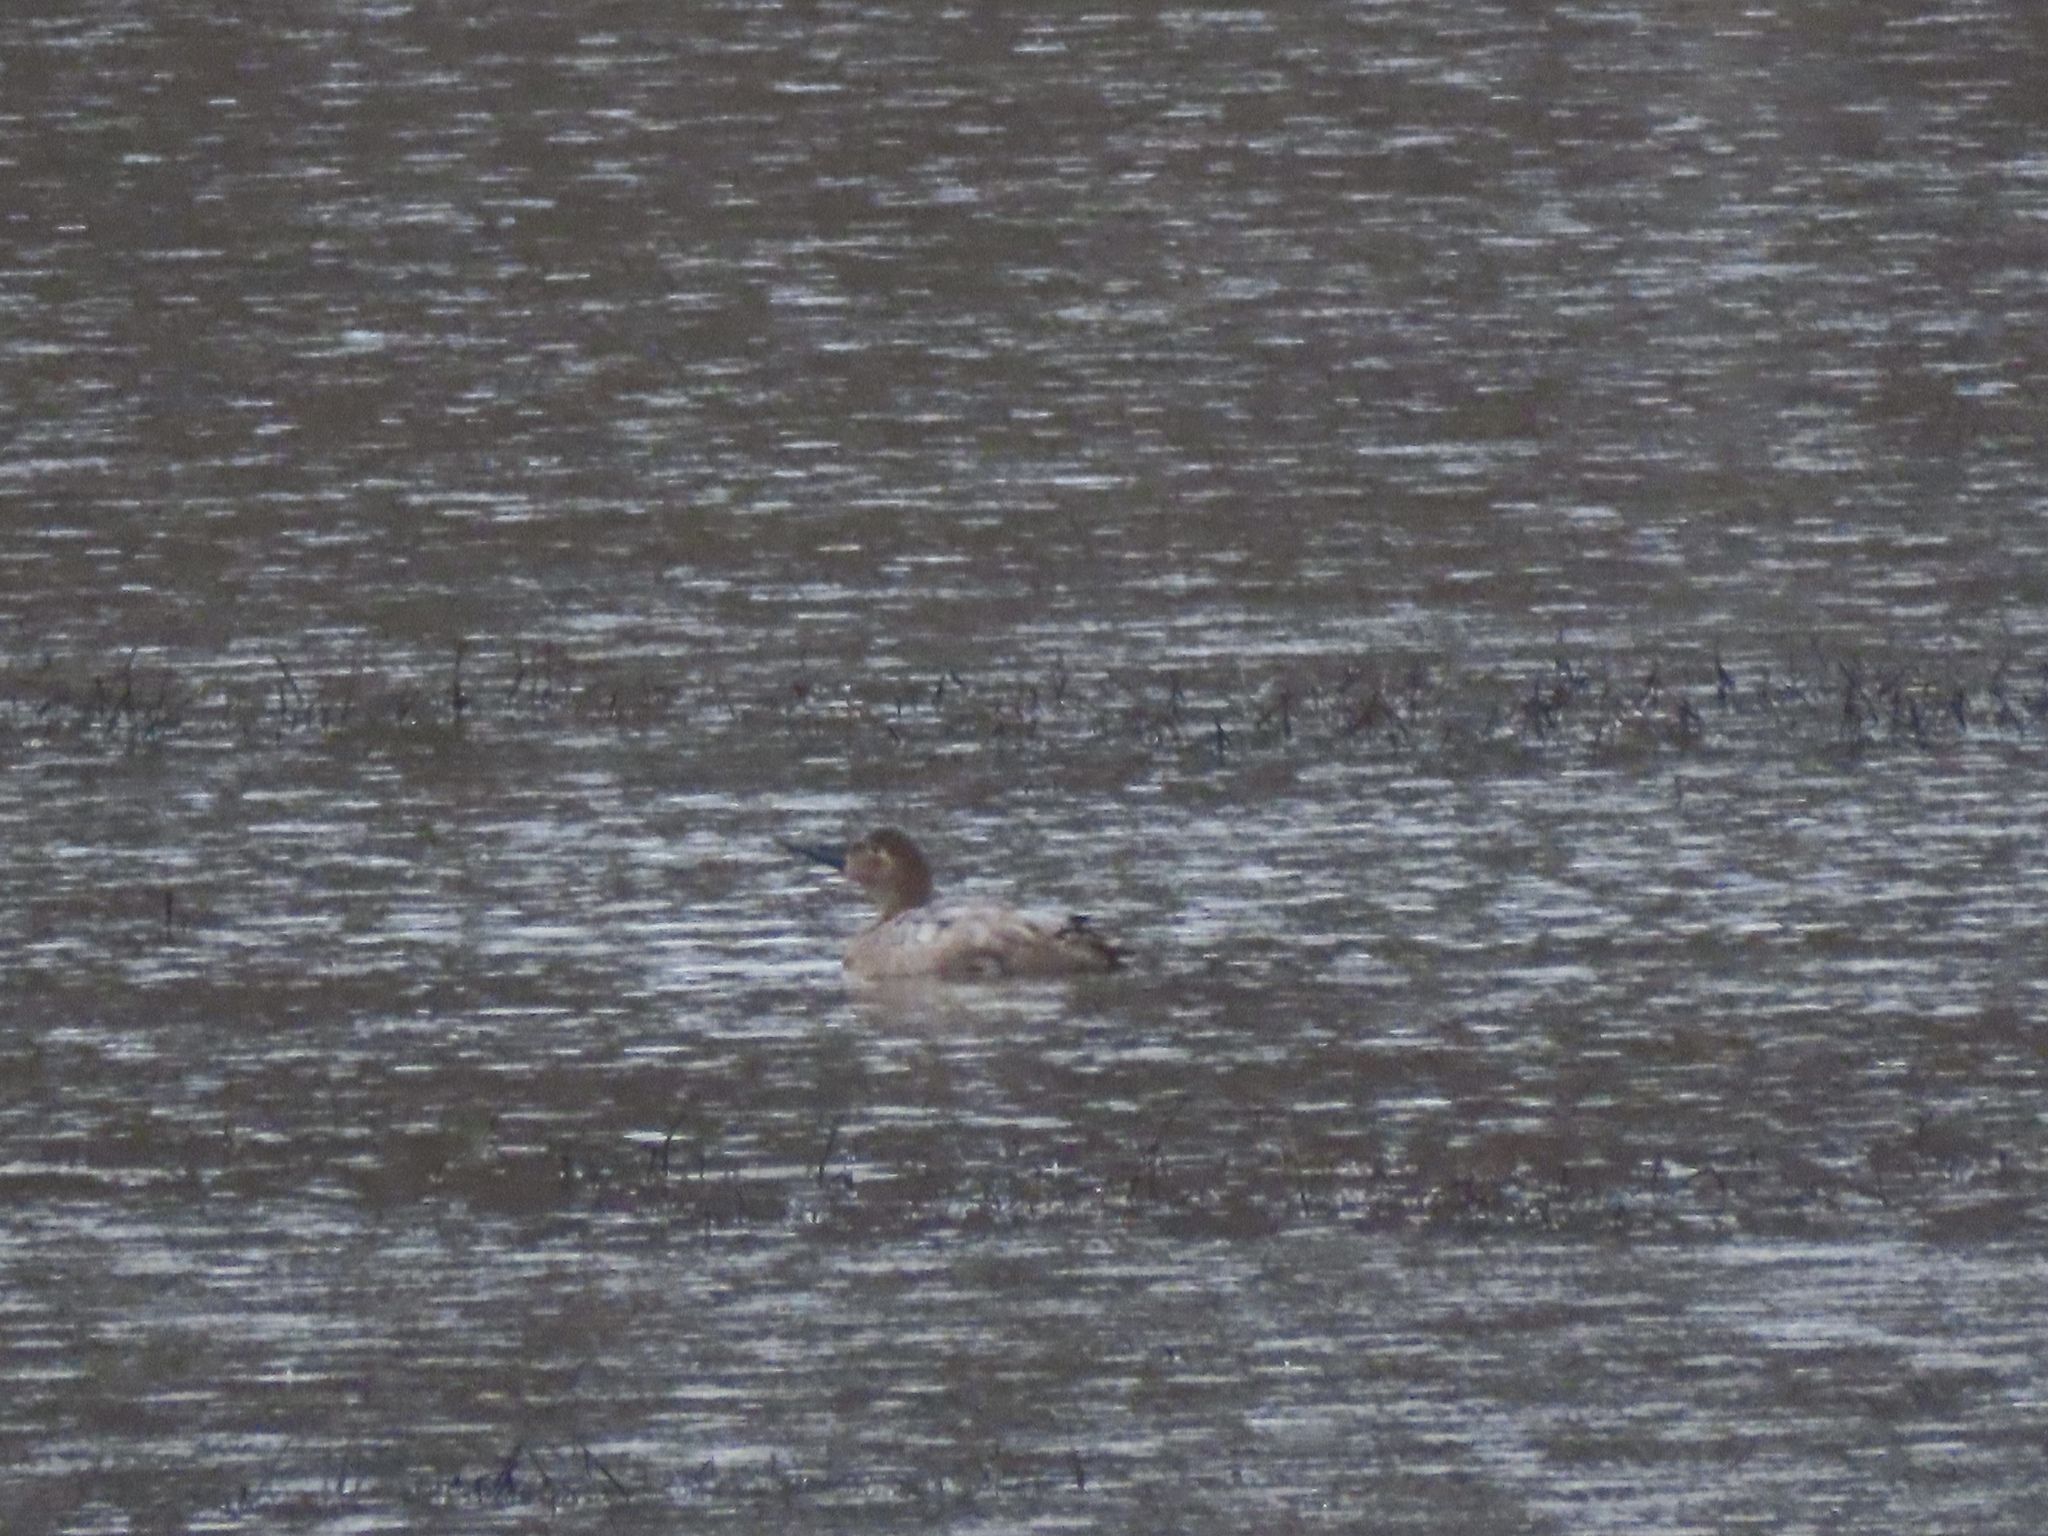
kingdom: Animalia
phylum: Chordata
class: Aves
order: Anseriformes
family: Anatidae
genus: Aythya
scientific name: Aythya valisineria
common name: Canvasback
